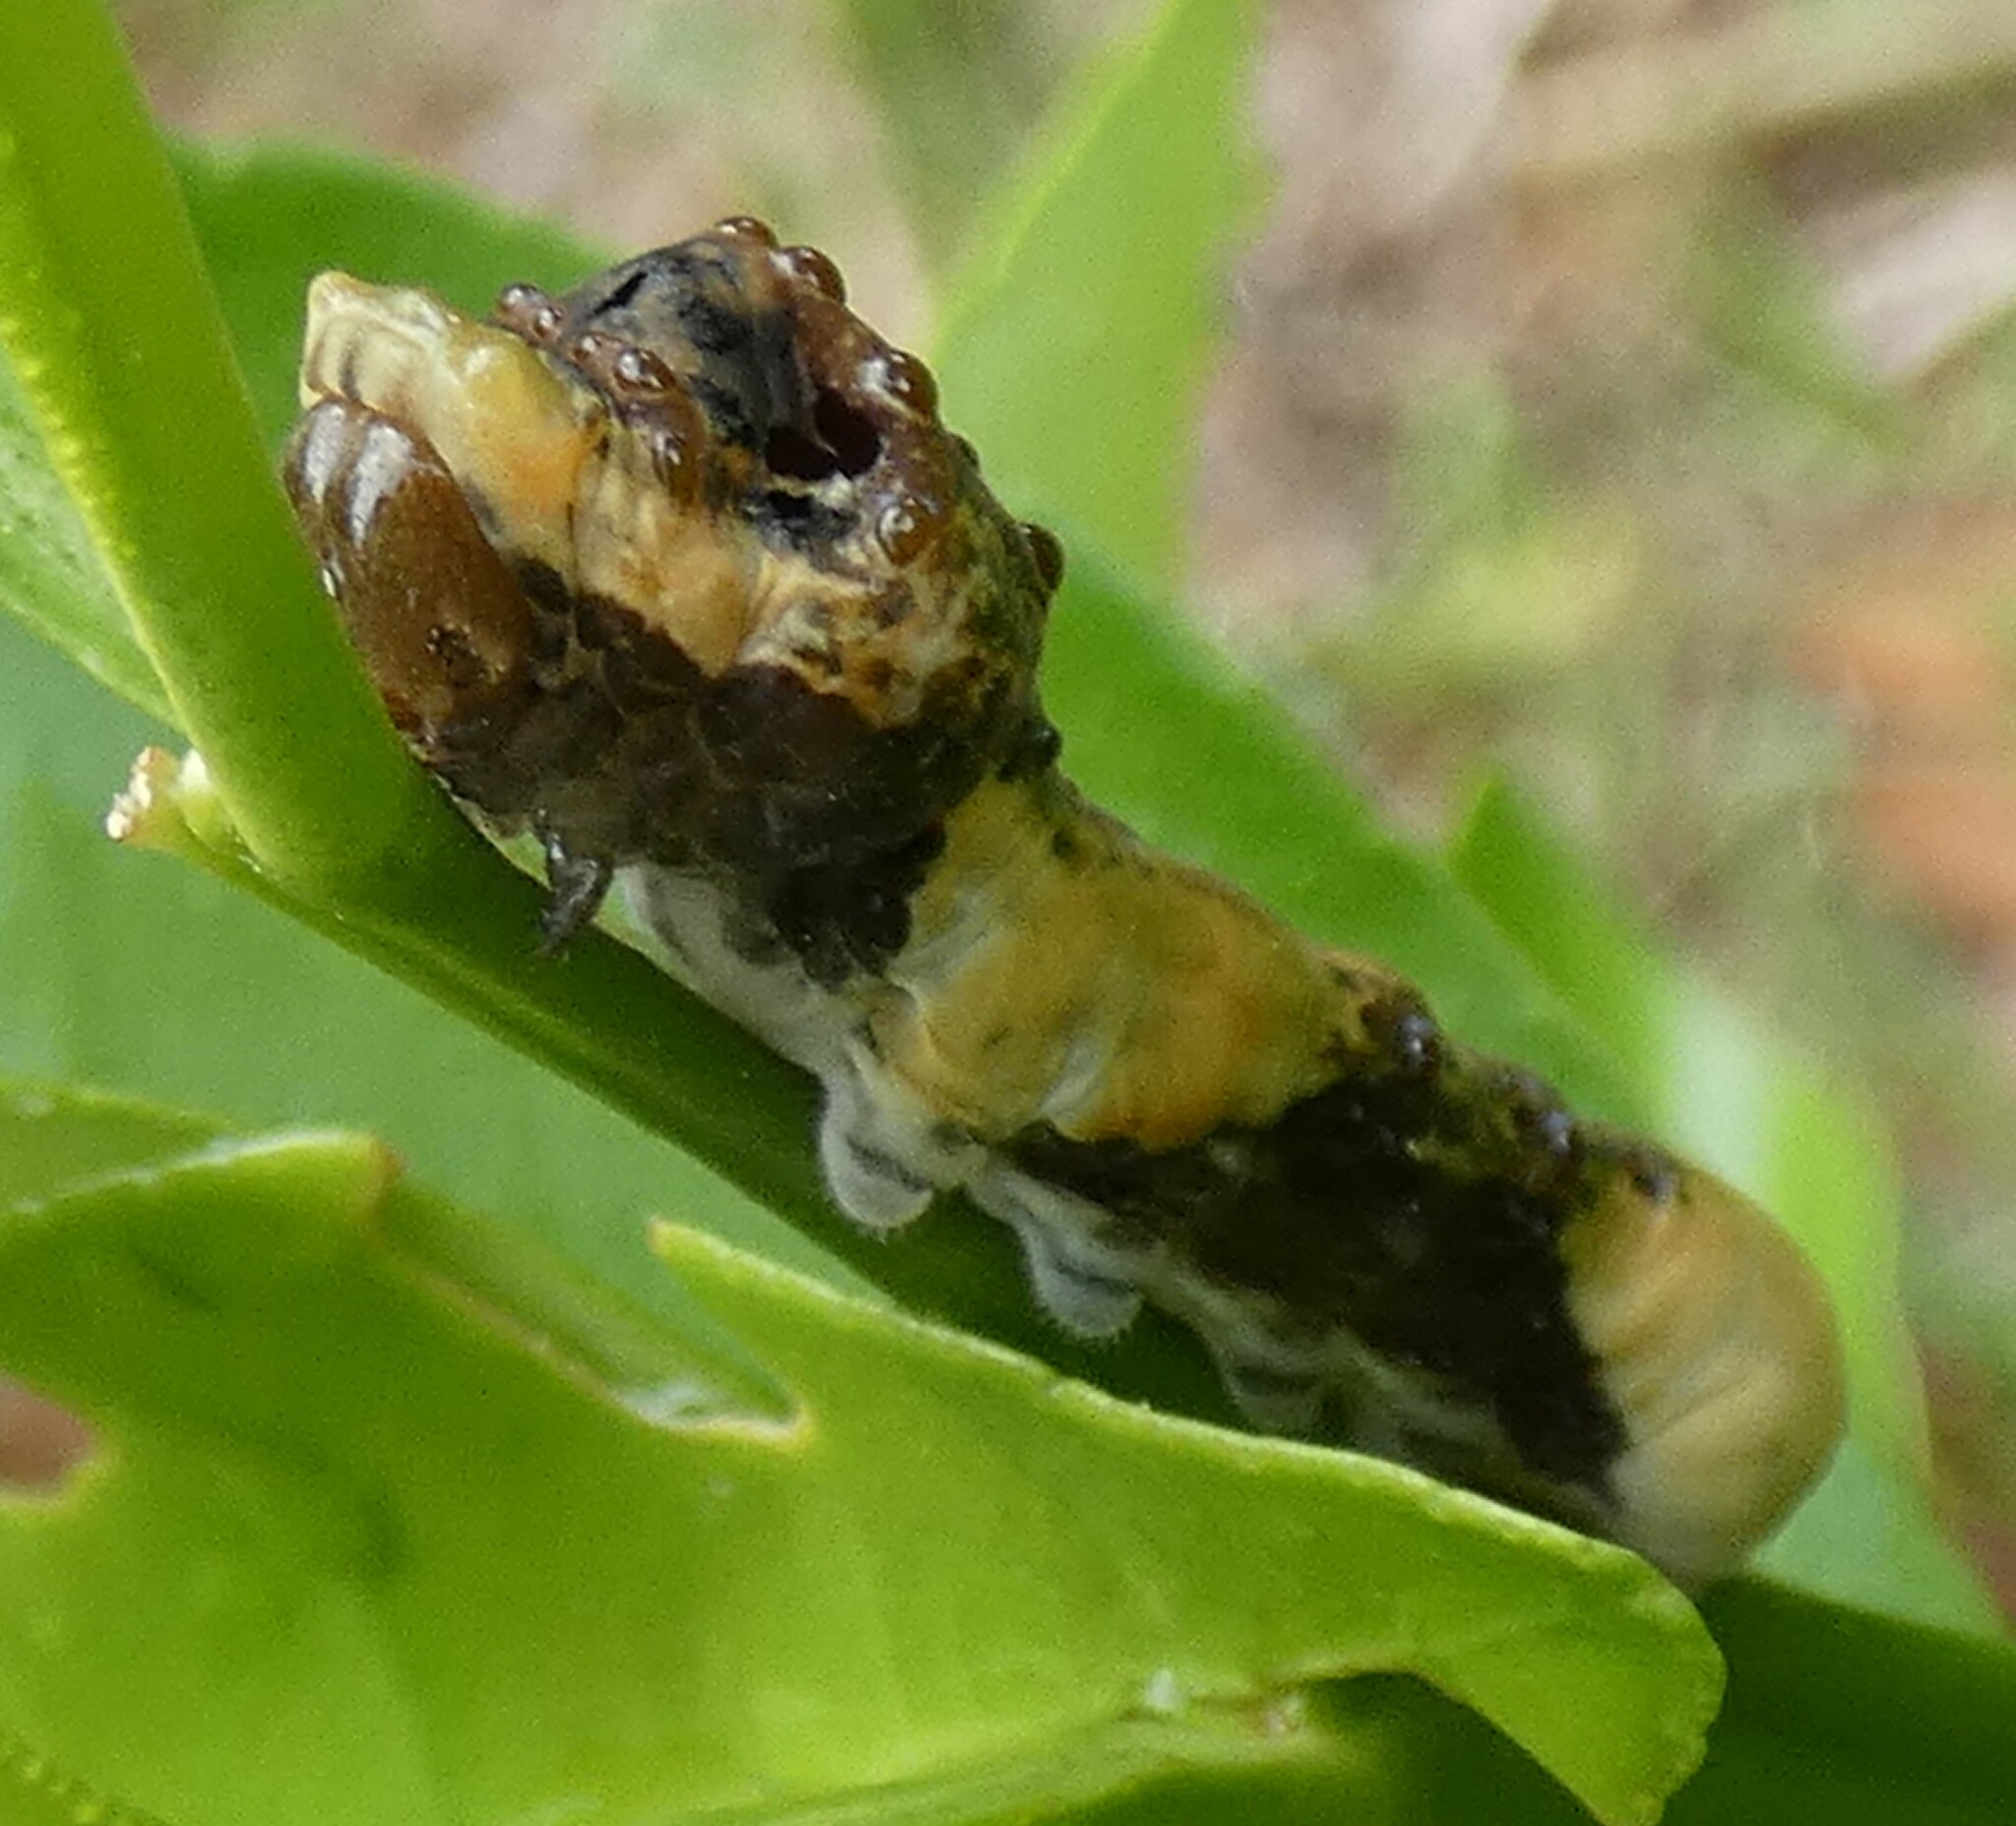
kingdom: Animalia
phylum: Arthropoda
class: Insecta
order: Lepidoptera
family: Papilionidae
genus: Papilio
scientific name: Papilio cresphontes
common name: Giant swallowtail
